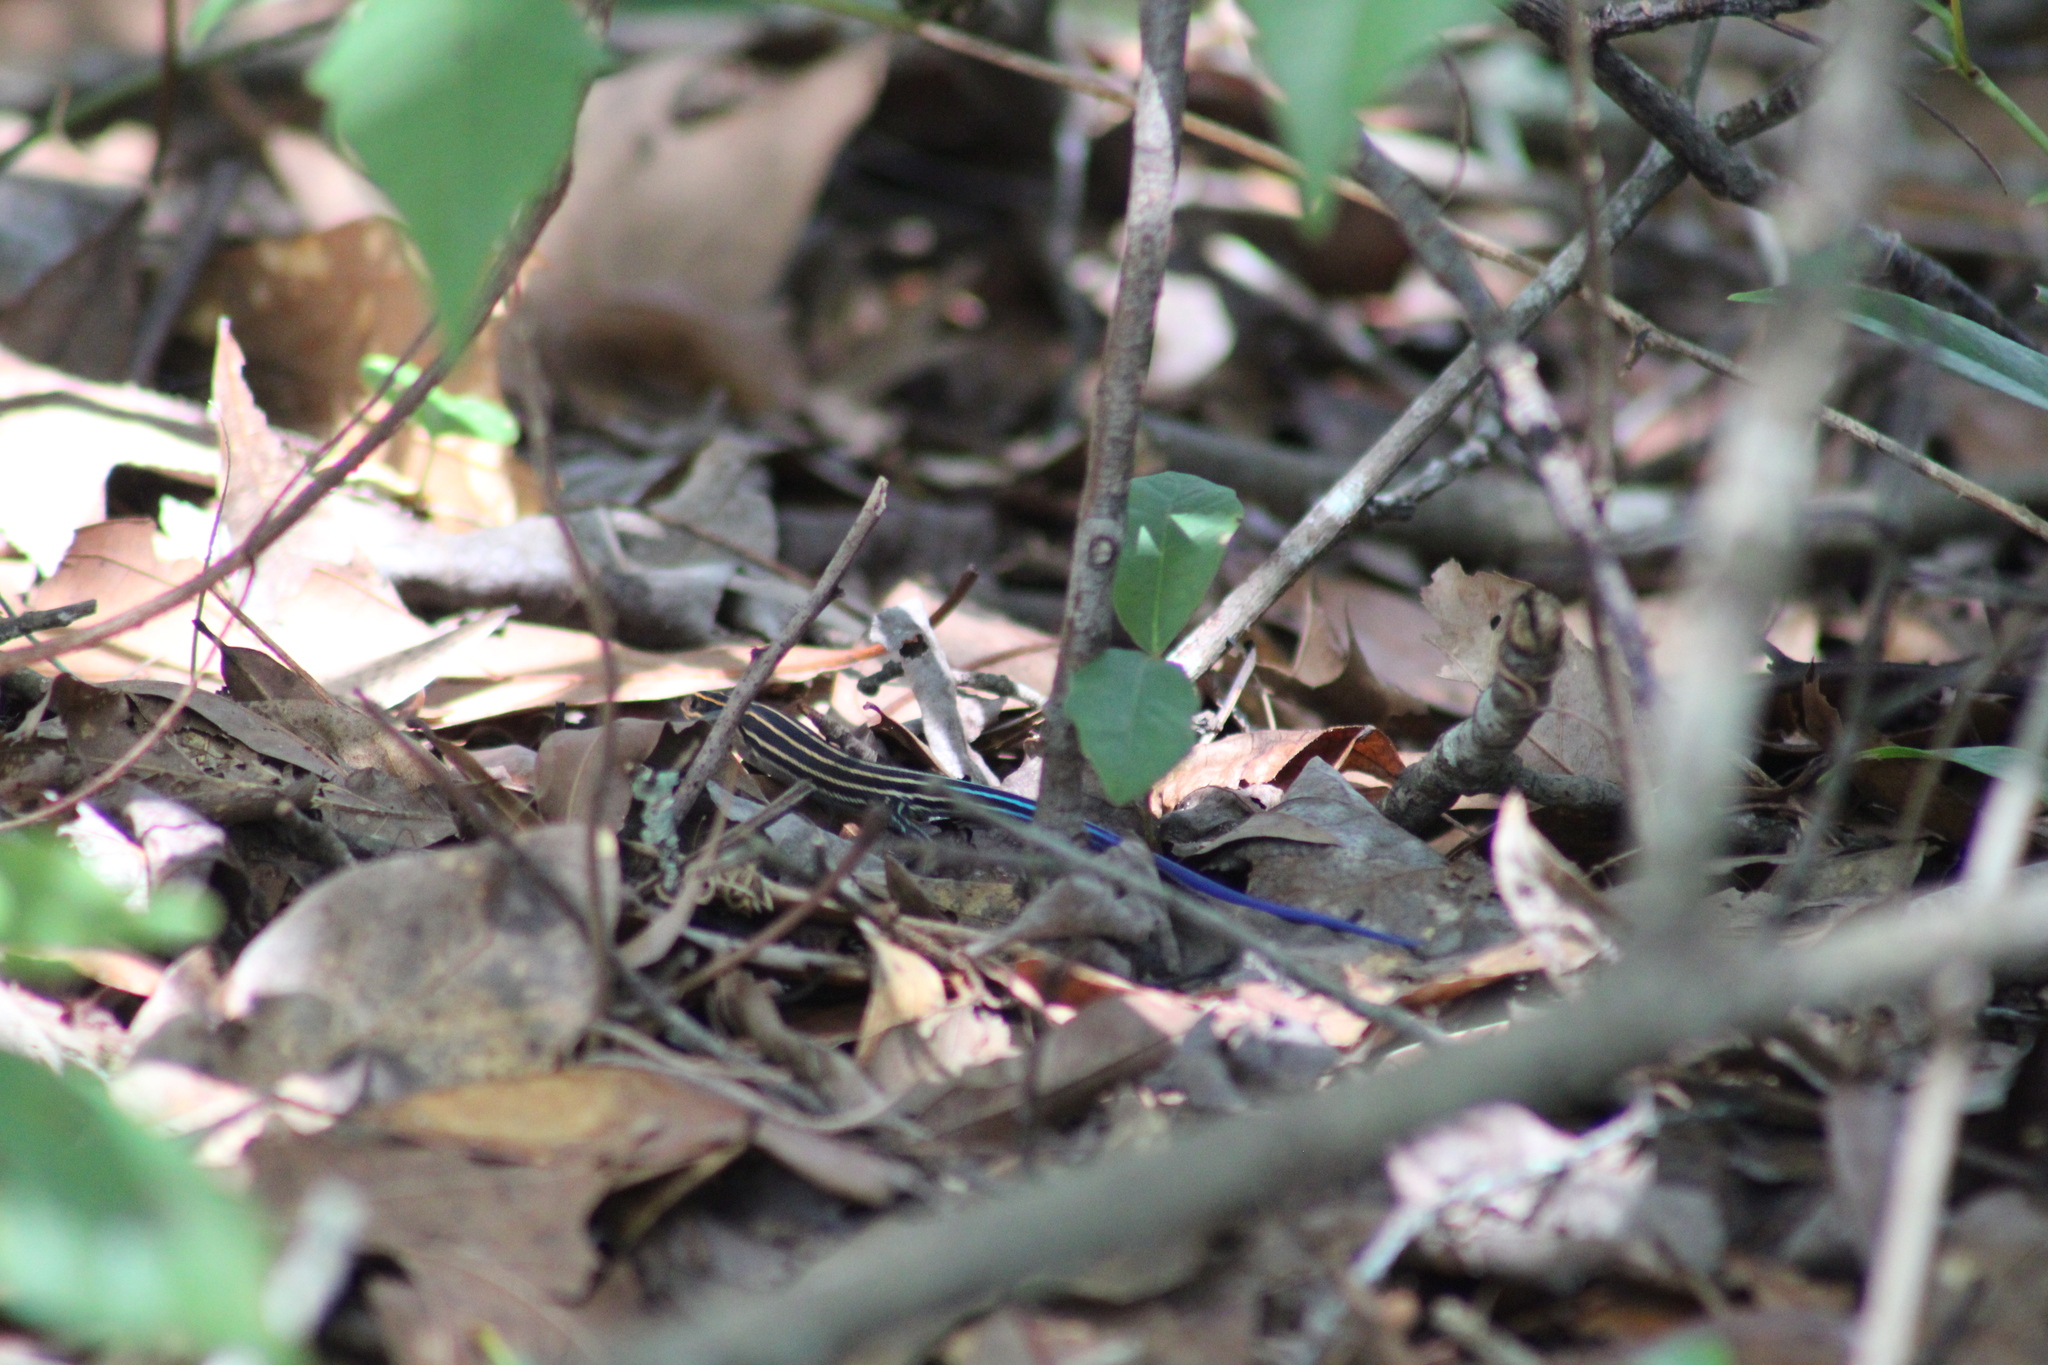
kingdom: Animalia
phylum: Chordata
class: Squamata
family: Scincidae
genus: Plestiodon
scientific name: Plestiodon laticeps
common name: Broadhead skink
